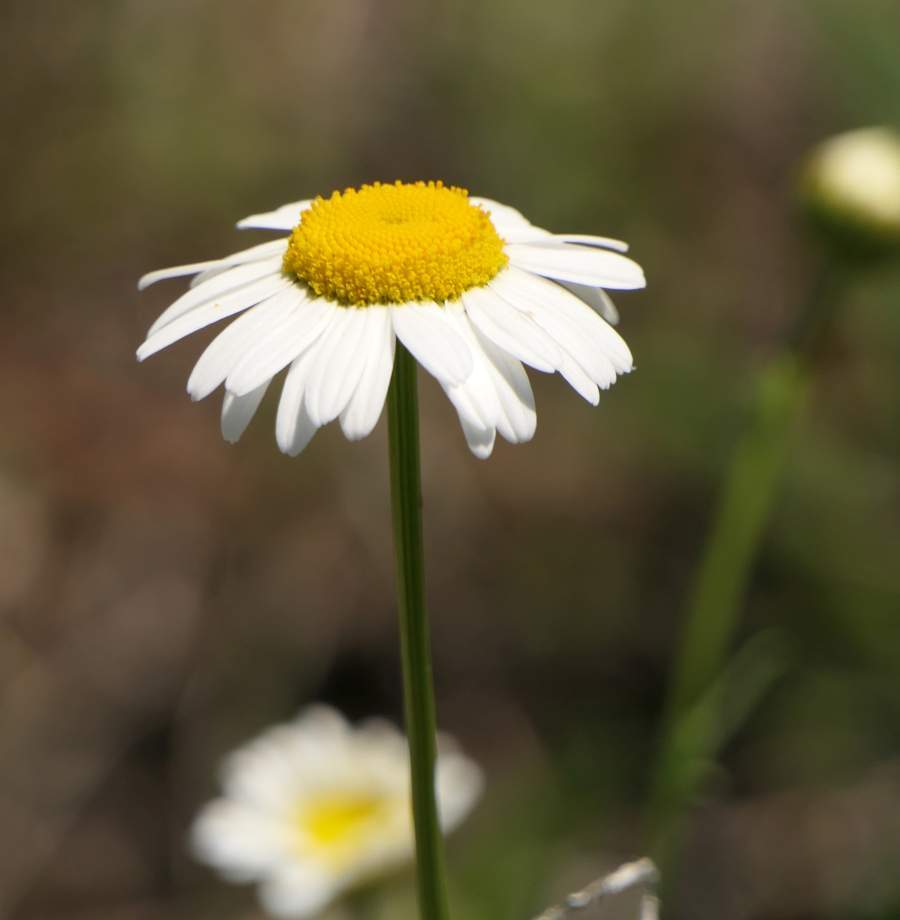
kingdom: Plantae
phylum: Tracheophyta
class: Magnoliopsida
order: Asterales
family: Asteraceae
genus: Leucanthemum
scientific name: Leucanthemum vulgare
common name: Oxeye daisy
